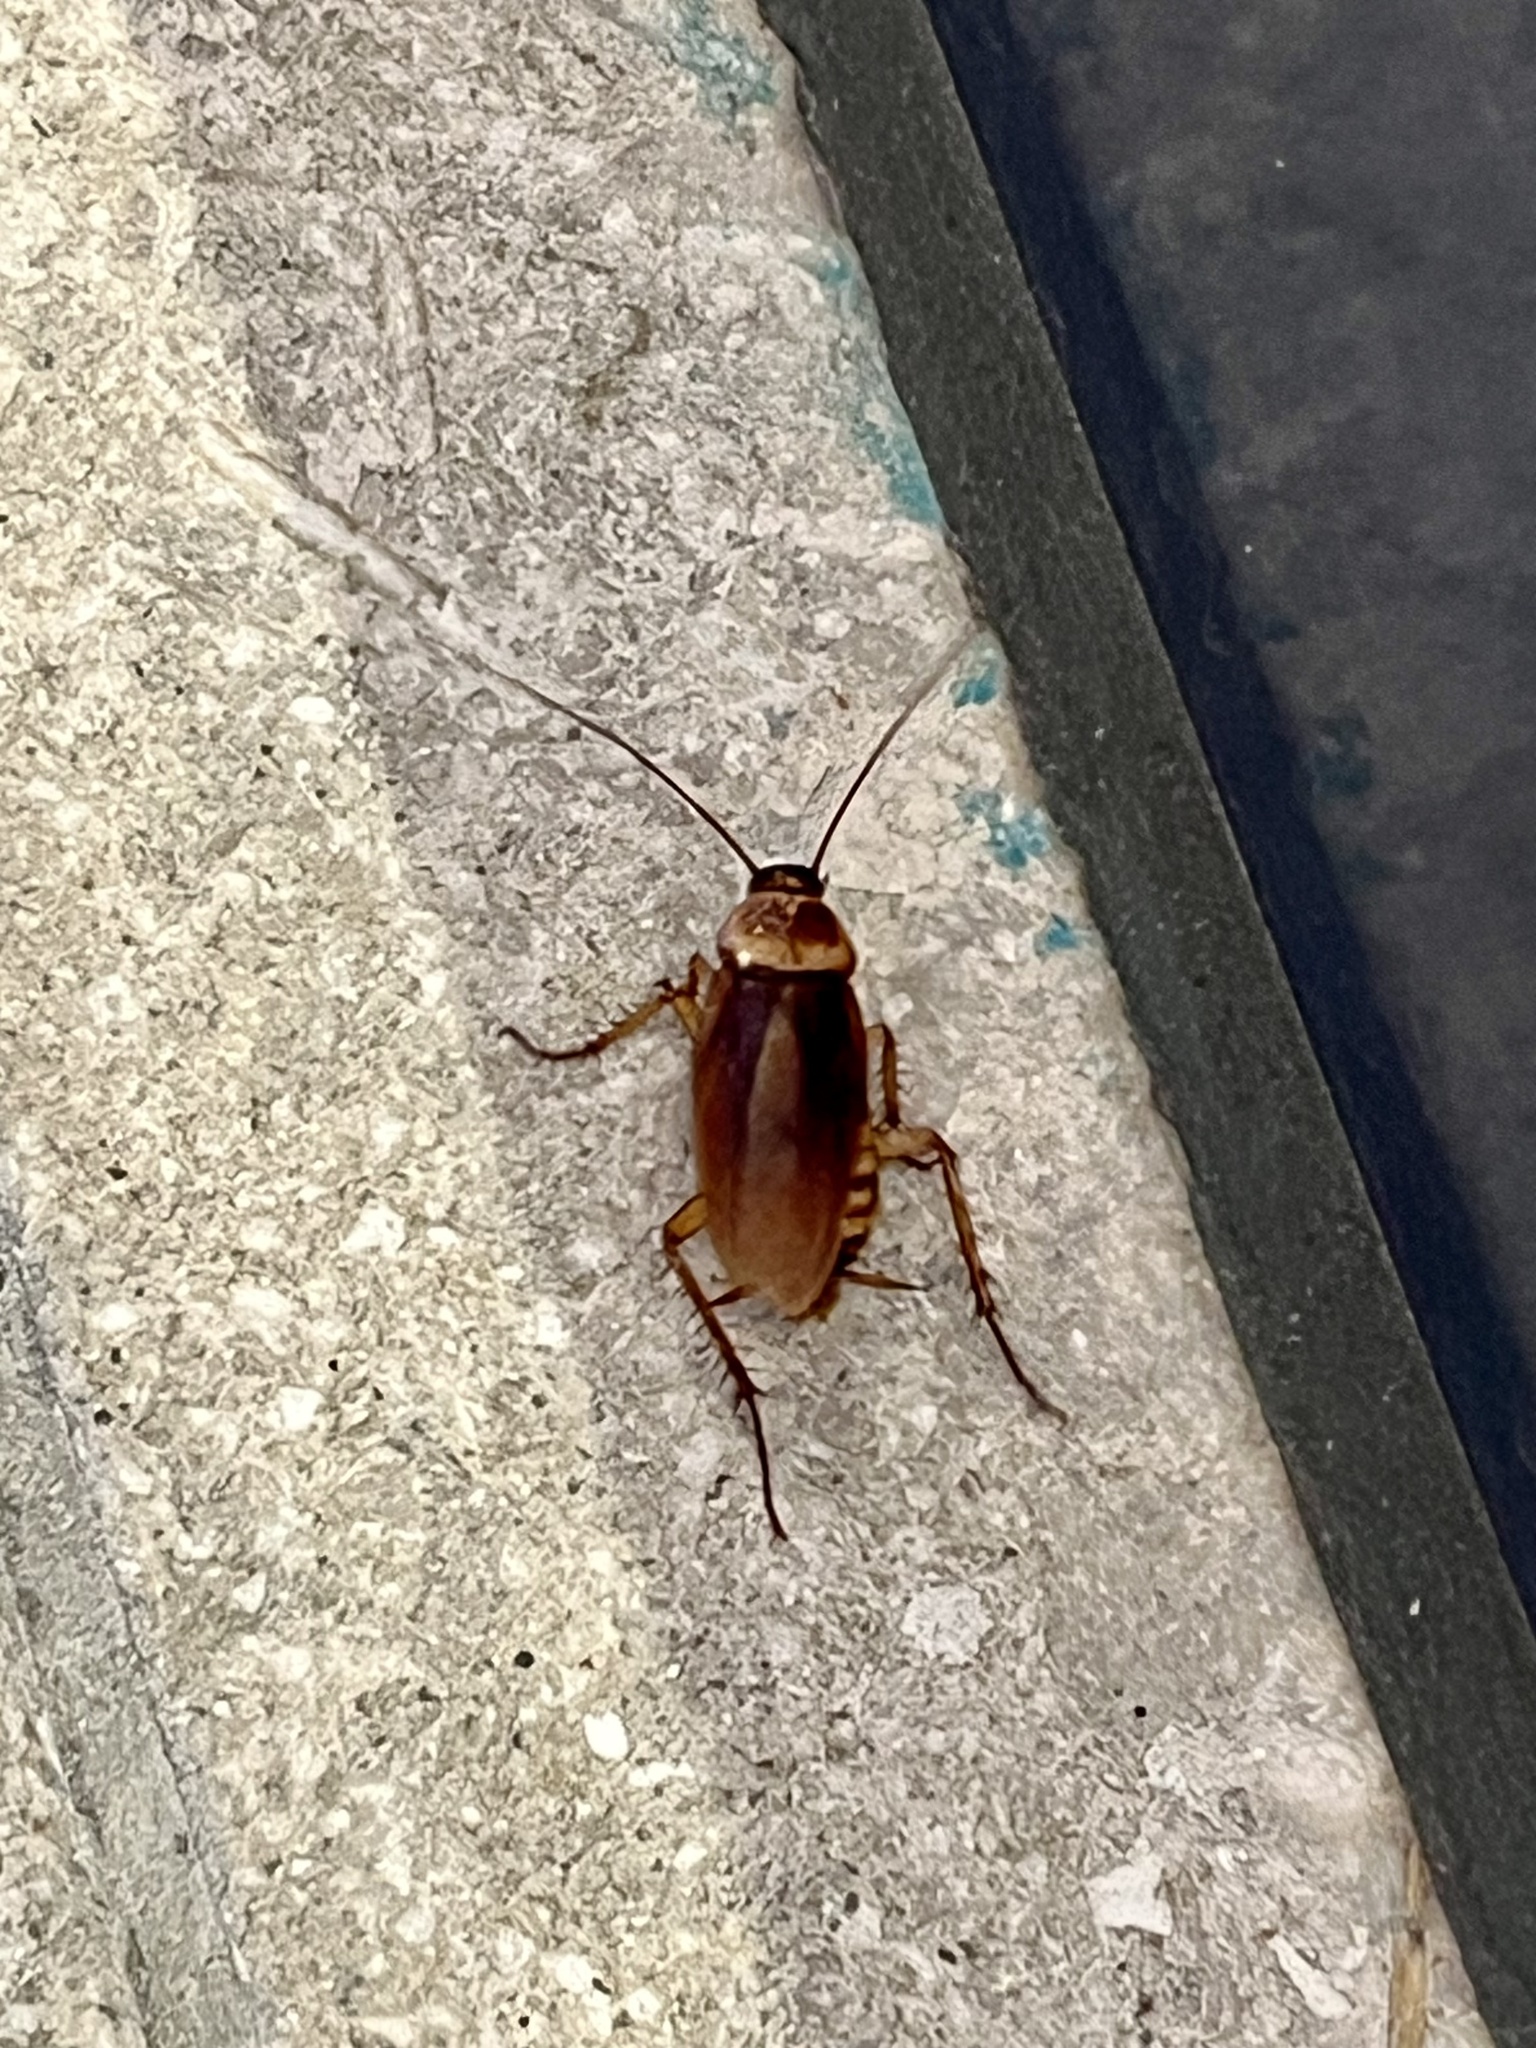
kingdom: Animalia
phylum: Arthropoda
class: Insecta
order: Blattodea
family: Blattidae
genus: Periplaneta
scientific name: Periplaneta americana
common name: American cockroach
